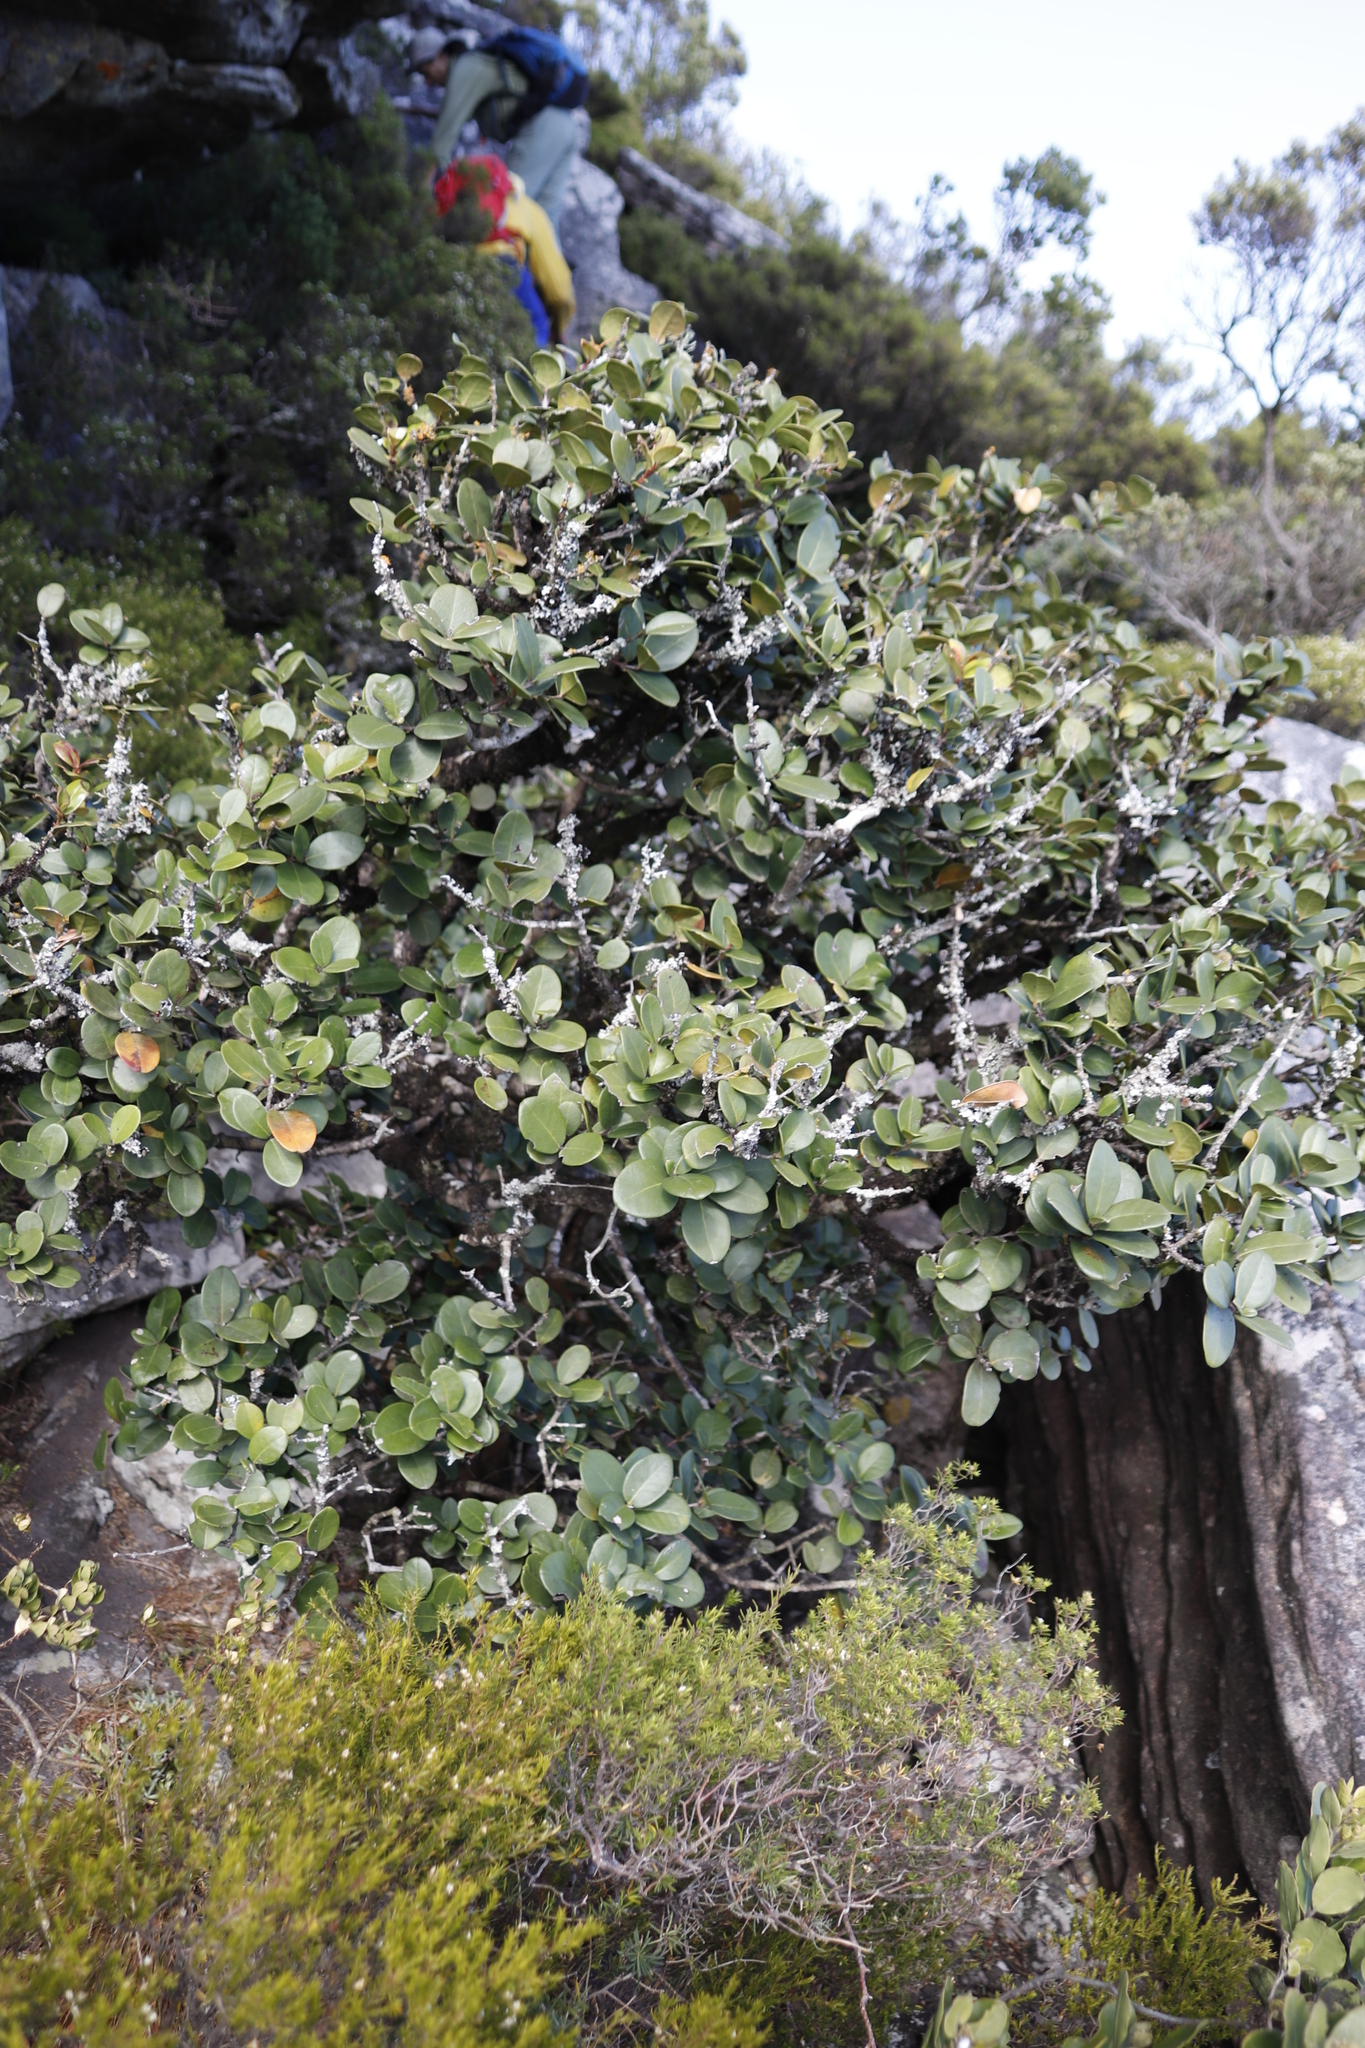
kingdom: Plantae
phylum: Tracheophyta
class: Magnoliopsida
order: Celastrales
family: Celastraceae
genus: Maurocenia
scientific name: Maurocenia frangula
